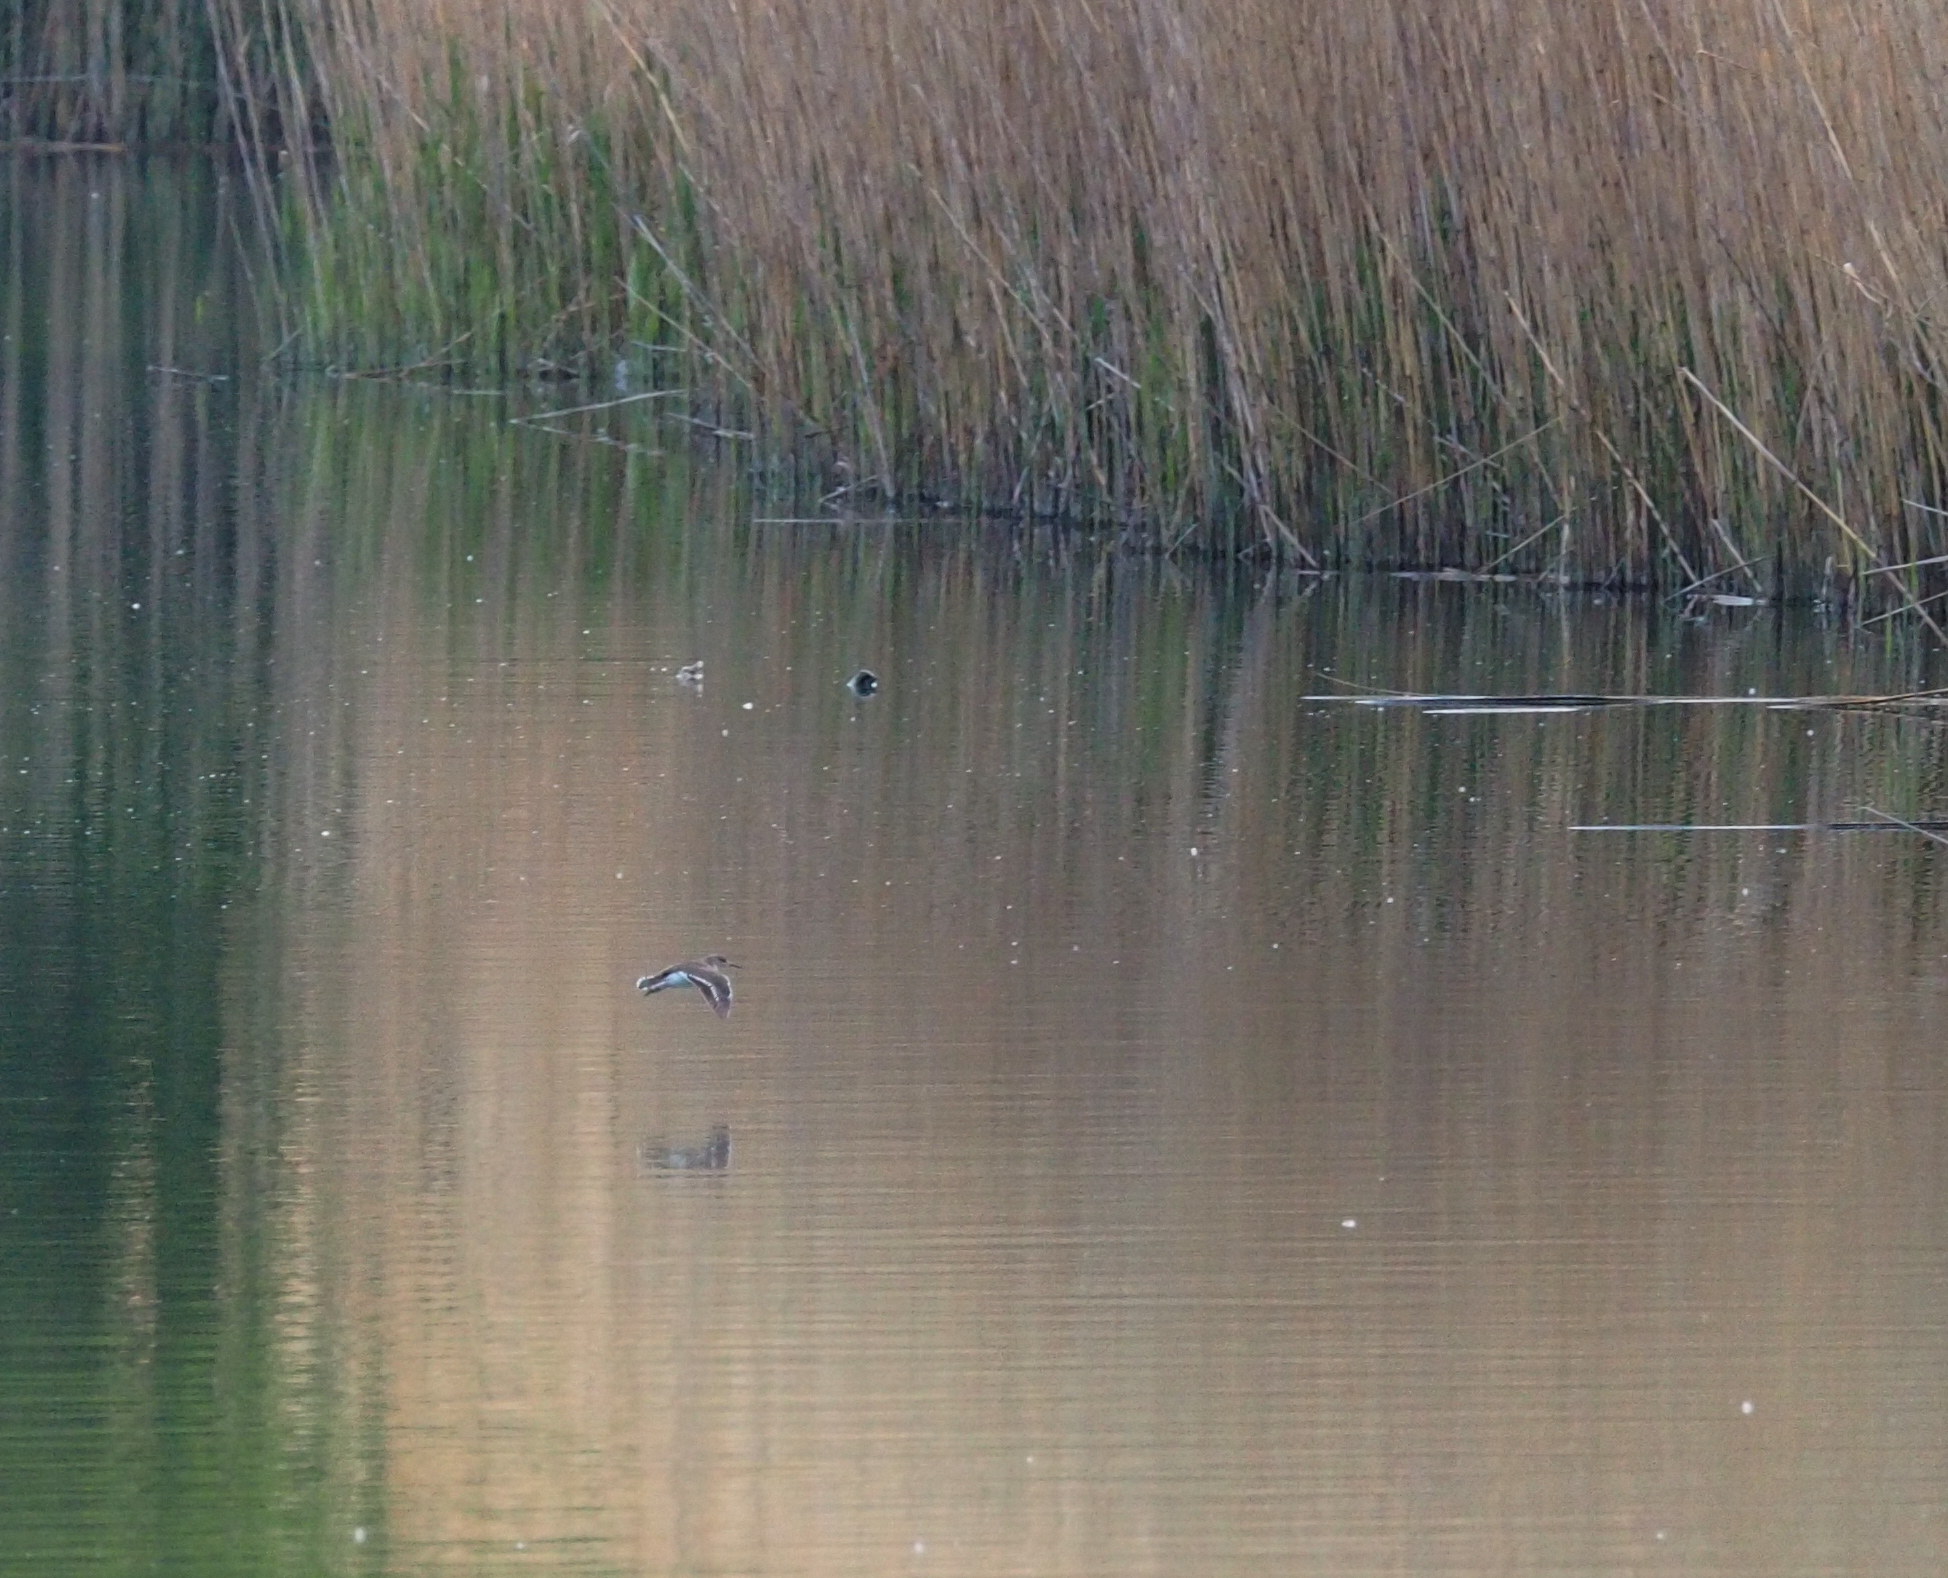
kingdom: Animalia
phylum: Chordata
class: Aves
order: Charadriiformes
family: Scolopacidae
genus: Actitis
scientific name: Actitis hypoleucos
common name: Common sandpiper
